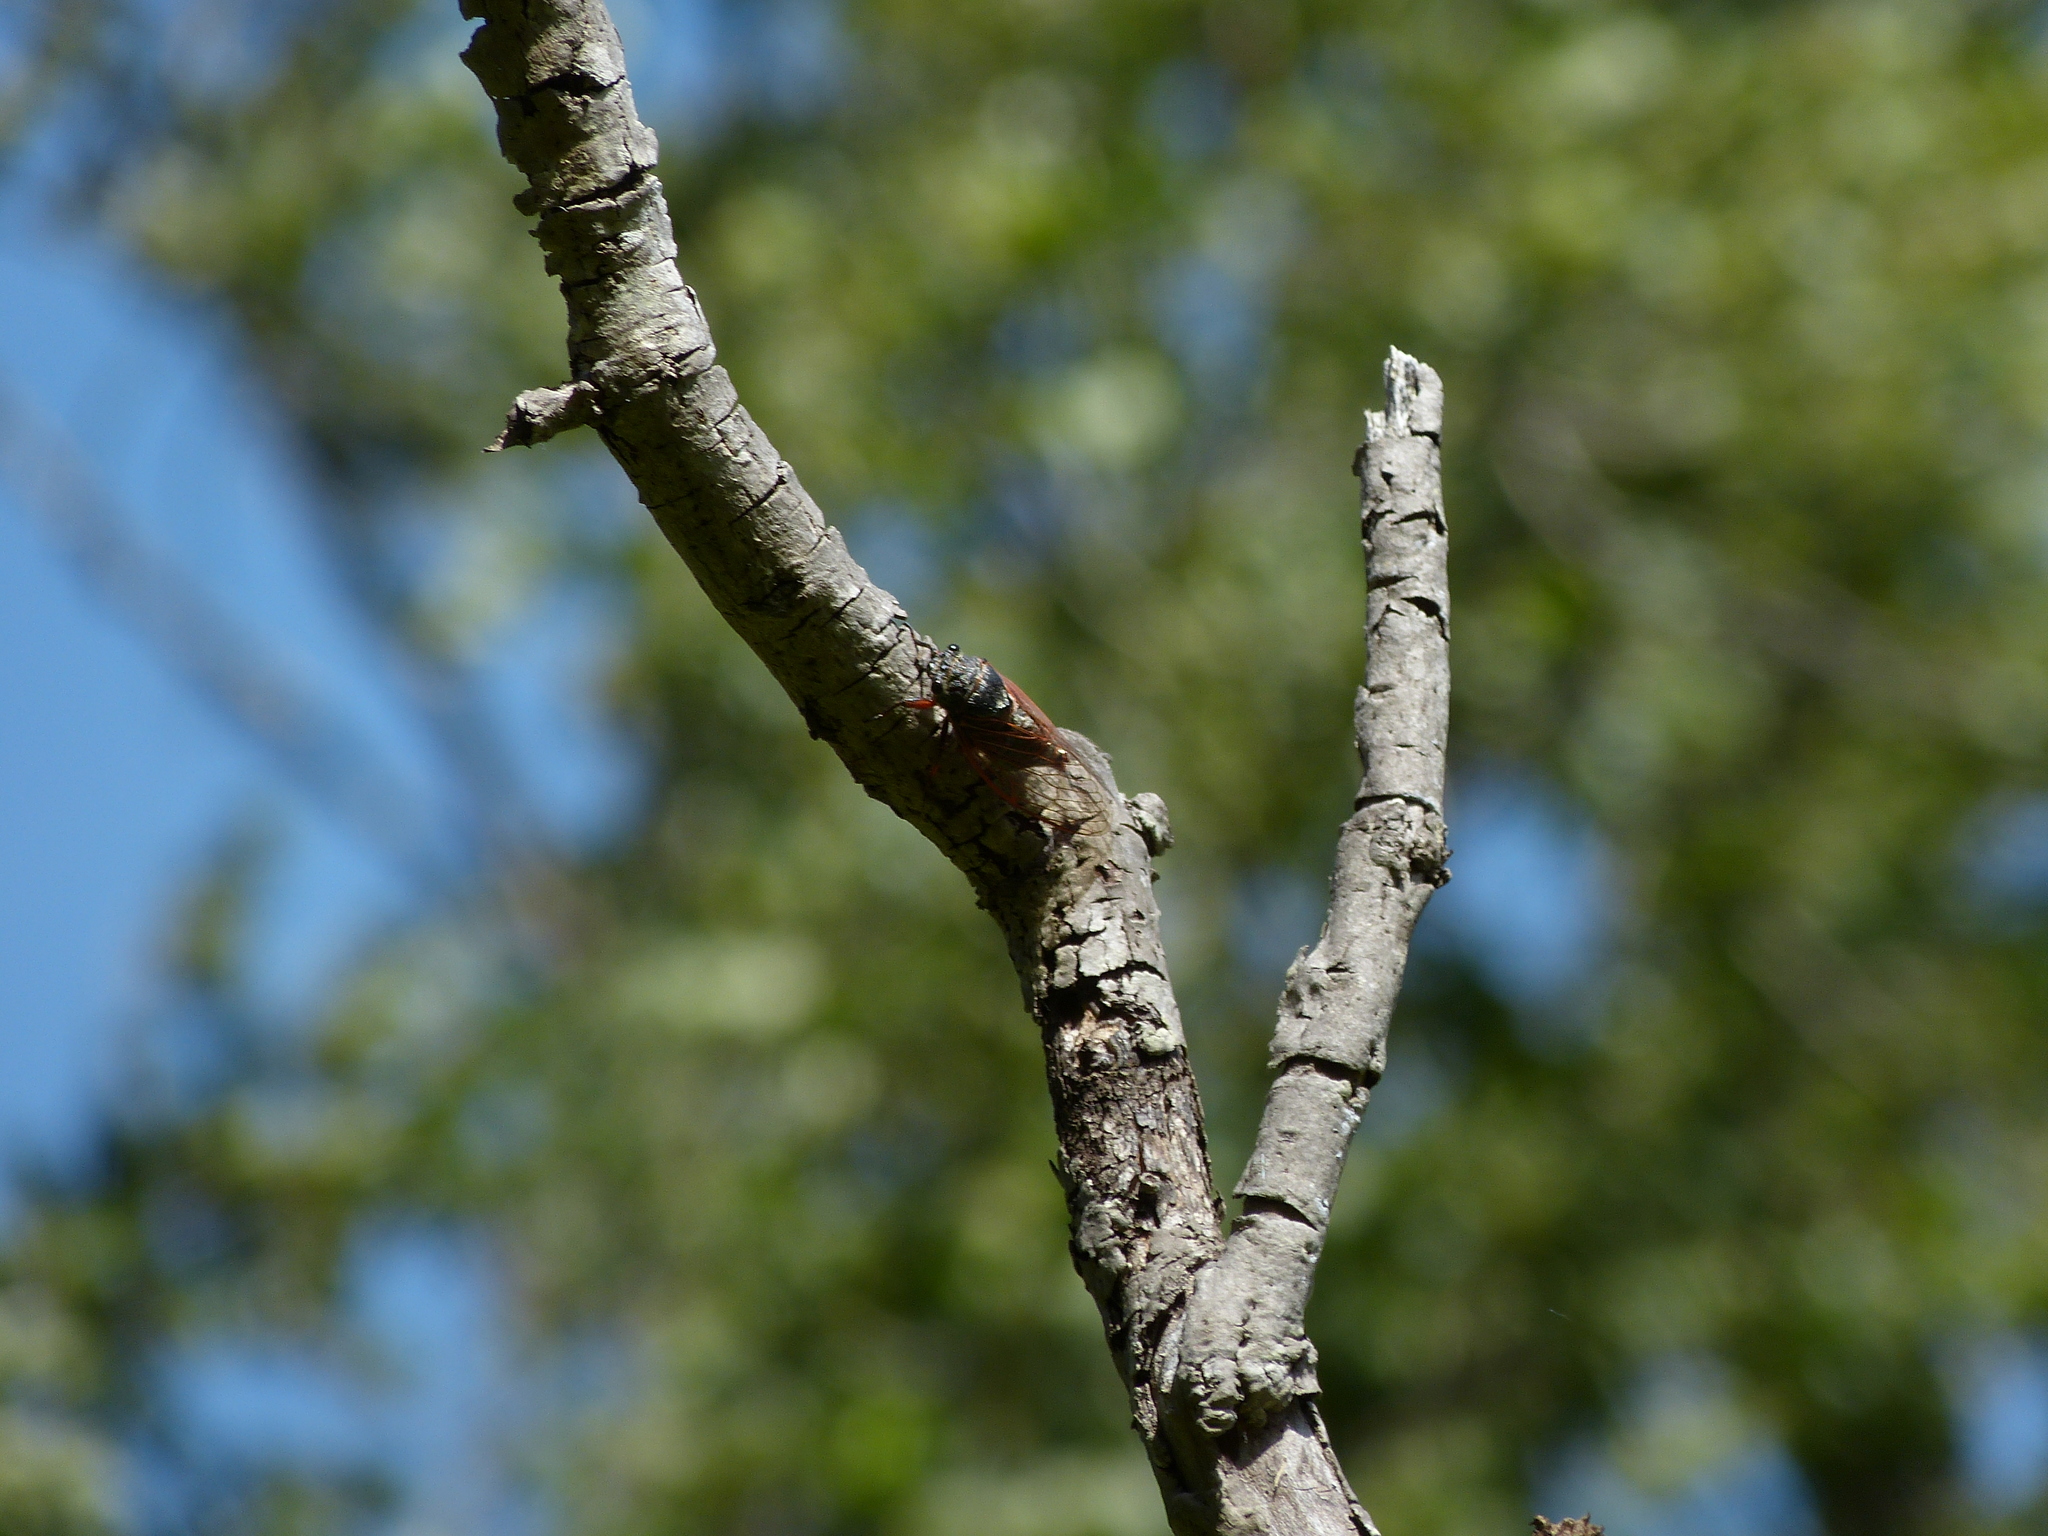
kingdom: Animalia
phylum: Arthropoda
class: Insecta
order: Hemiptera
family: Cicadidae
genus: Tibicina
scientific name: Tibicina haematodes
